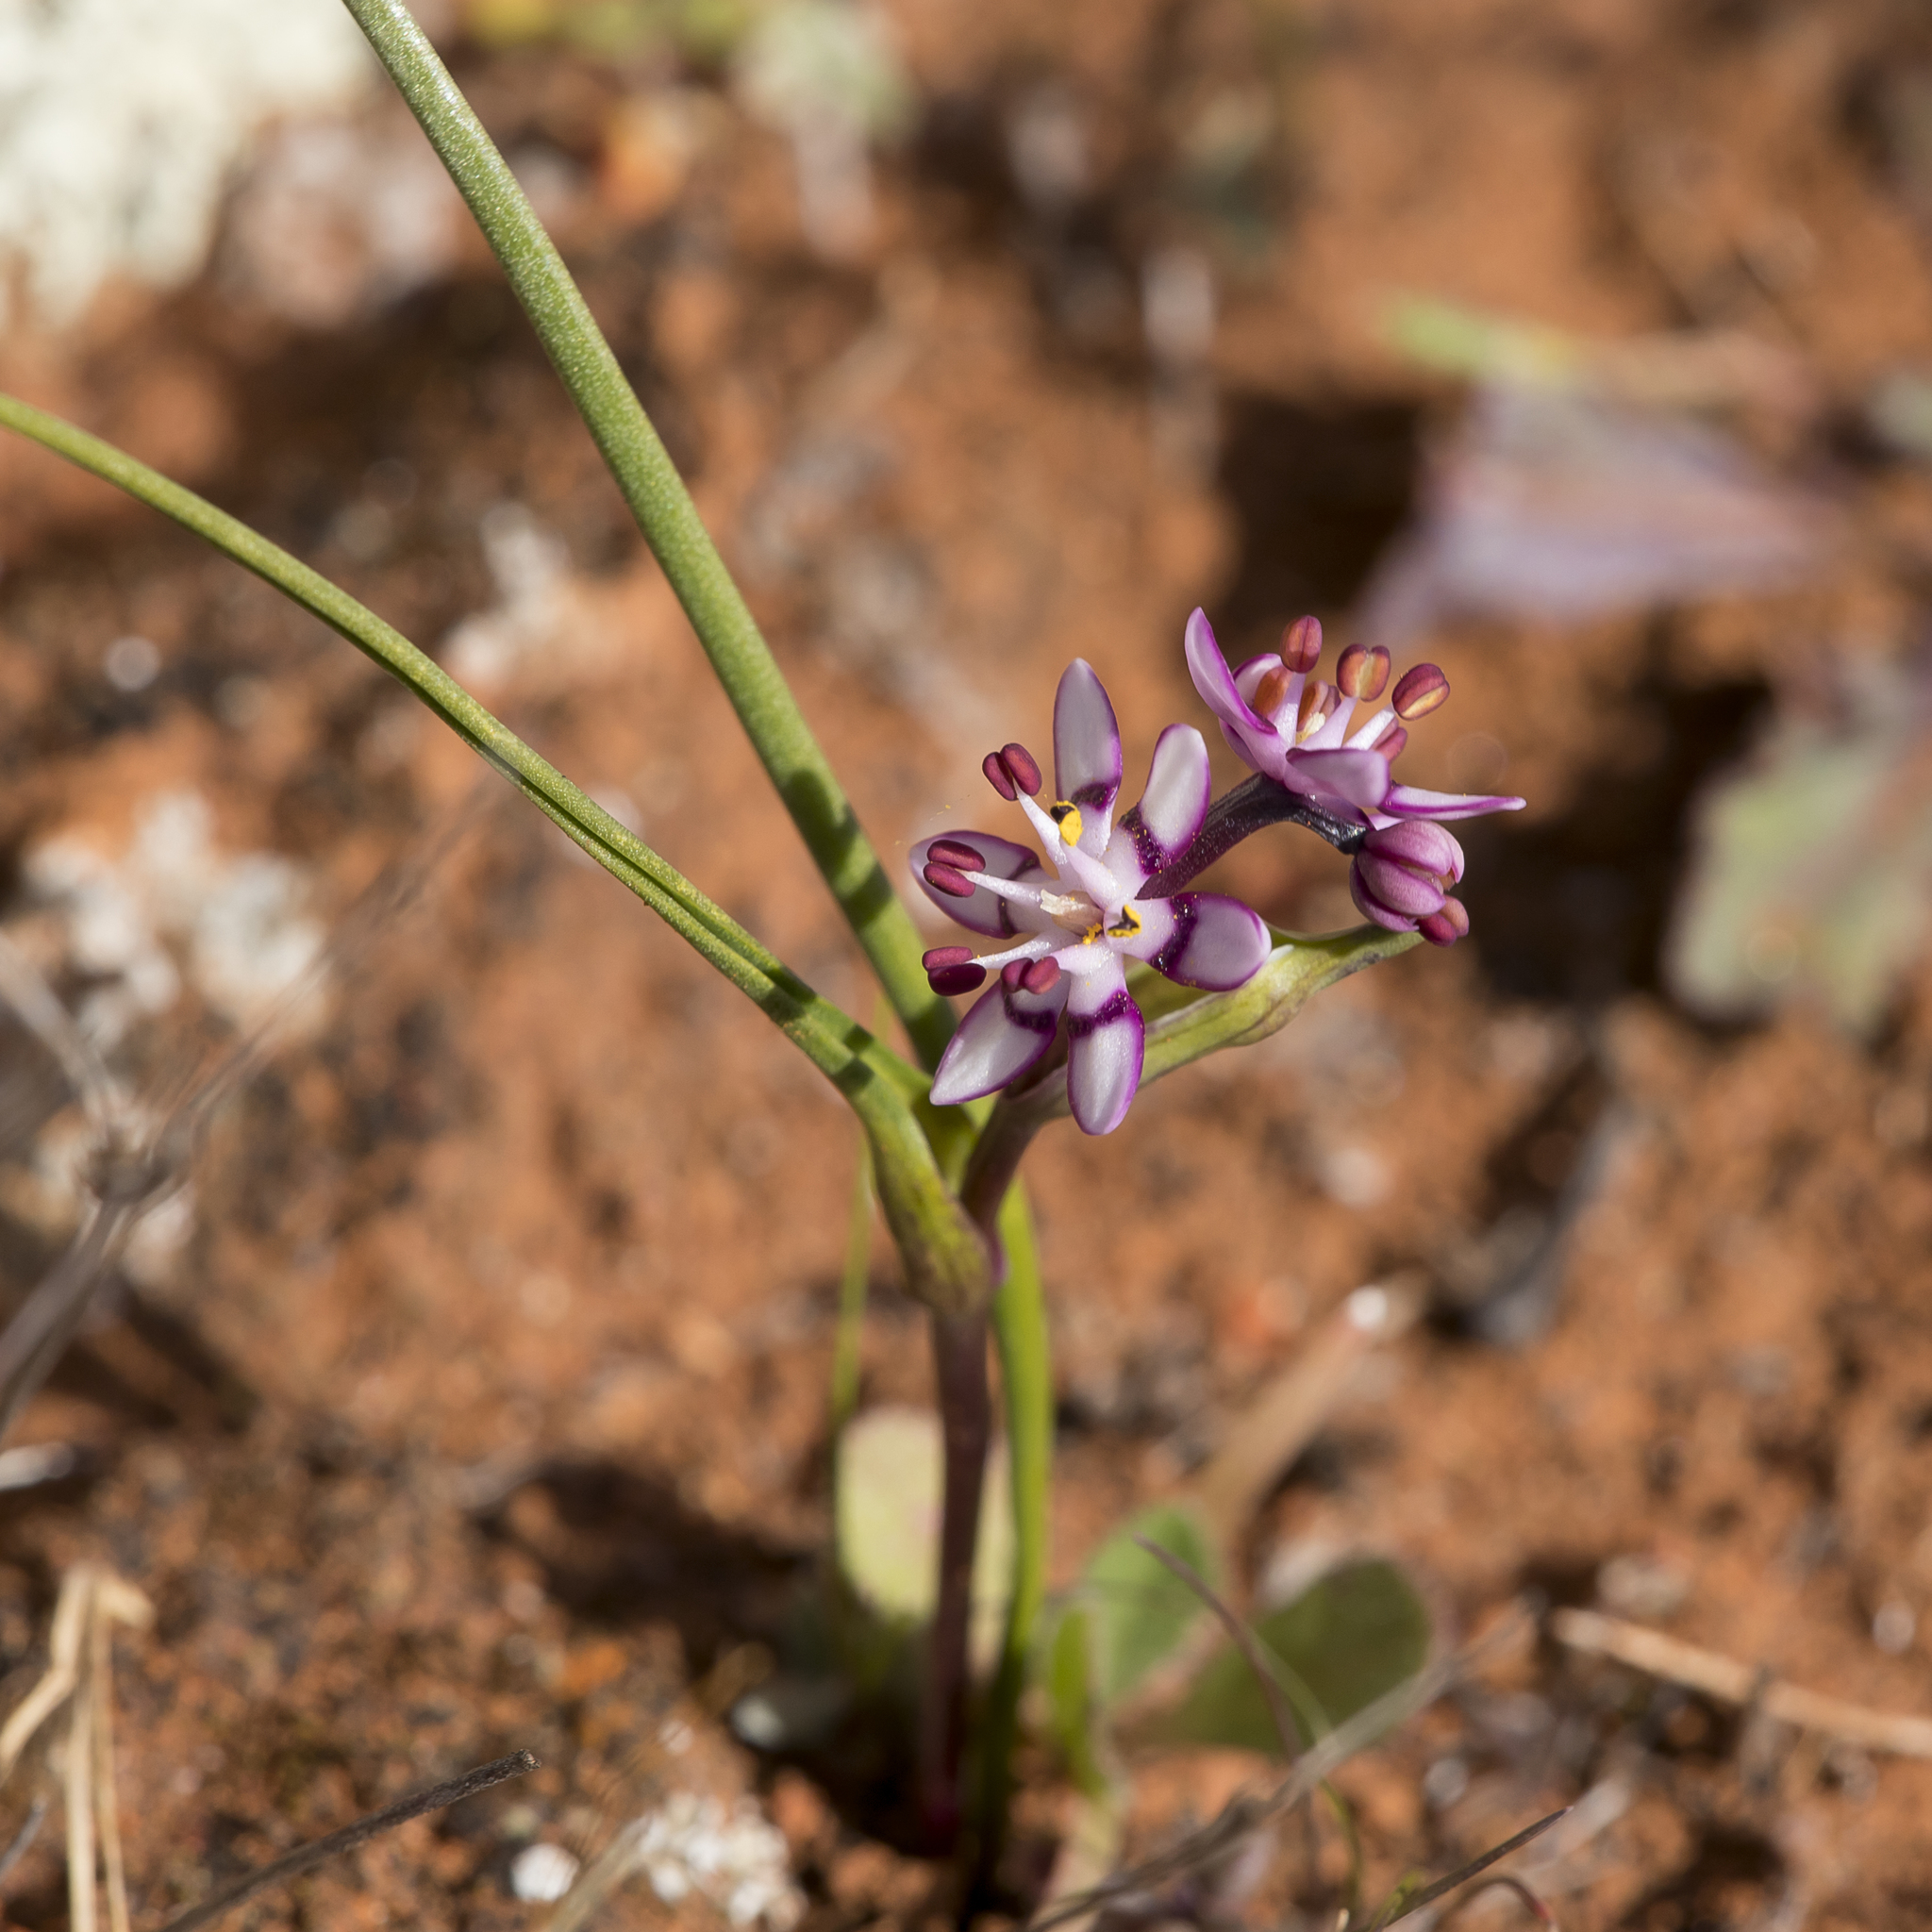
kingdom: Plantae
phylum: Tracheophyta
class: Liliopsida
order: Liliales
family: Colchicaceae
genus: Wurmbea
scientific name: Wurmbea dioica
